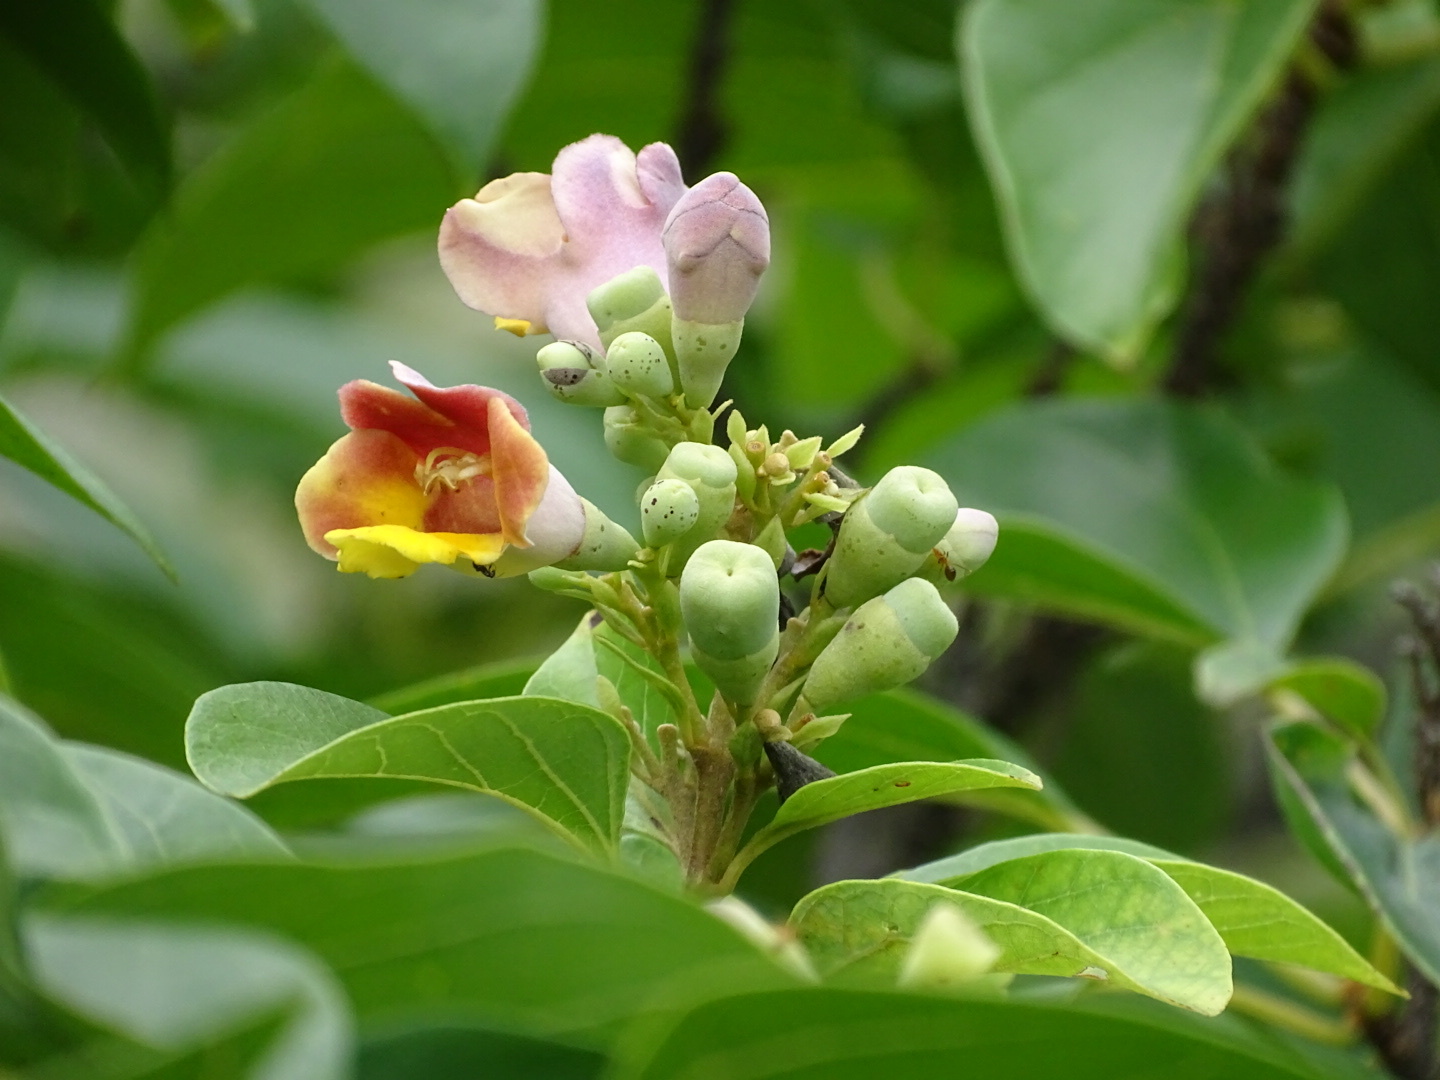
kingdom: Plantae
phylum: Tracheophyta
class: Magnoliopsida
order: Lamiales
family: Lamiaceae
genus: Gmelina
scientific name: Gmelina chinensis
